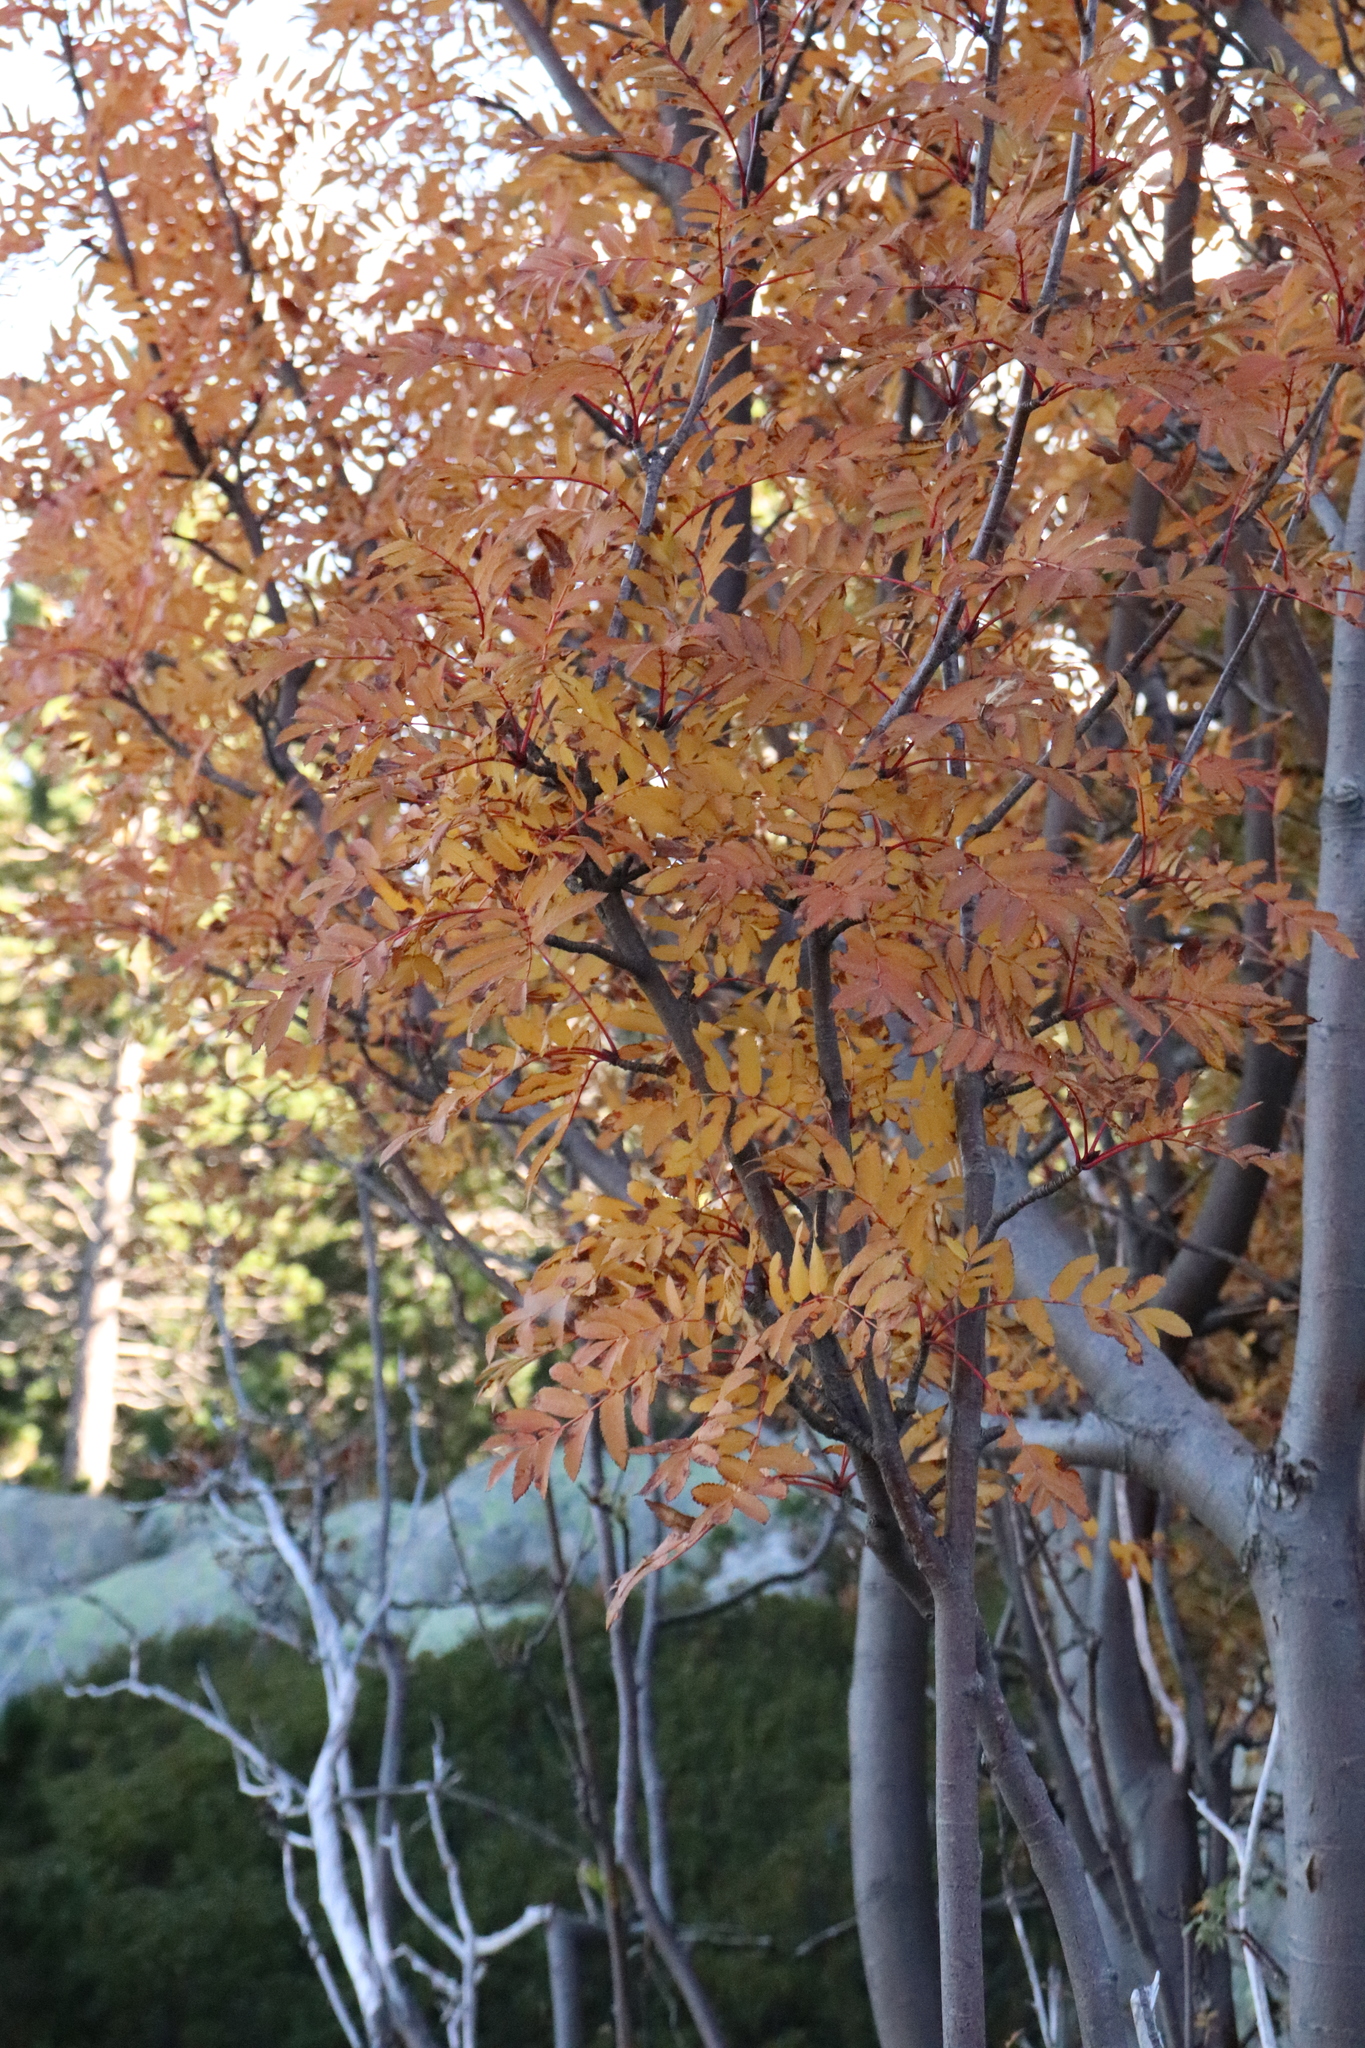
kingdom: Plantae
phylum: Tracheophyta
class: Magnoliopsida
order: Rosales
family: Rosaceae
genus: Sorbus
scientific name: Sorbus aucuparia
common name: Rowan
